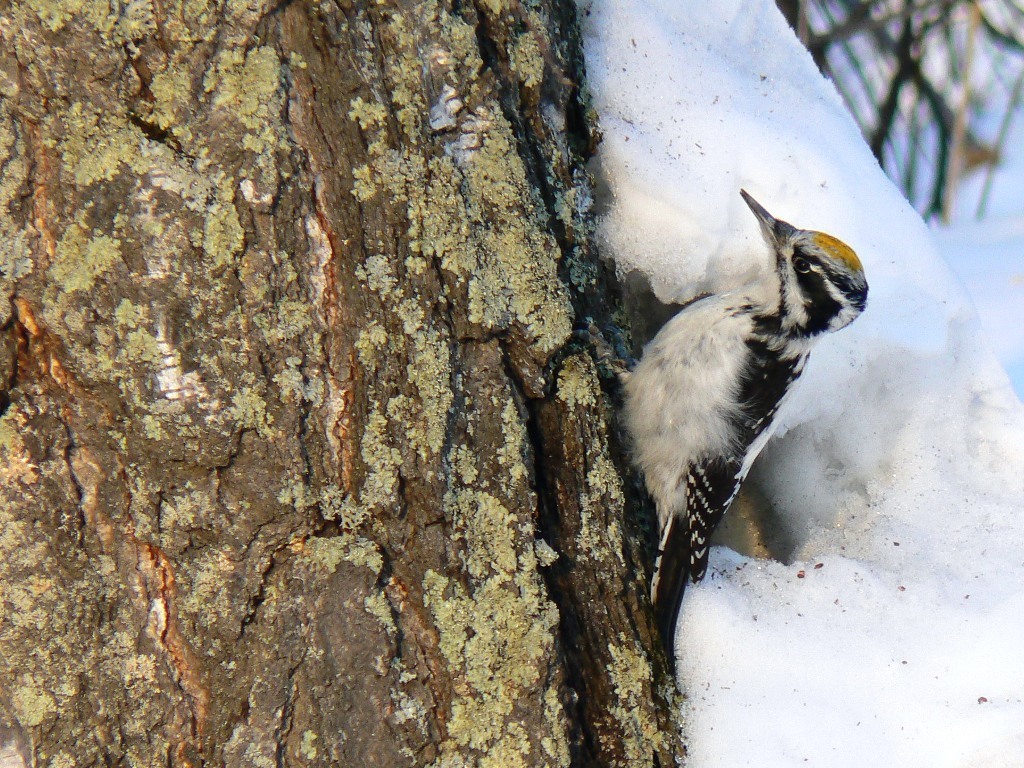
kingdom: Animalia
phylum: Chordata
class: Aves
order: Piciformes
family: Picidae
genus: Picoides
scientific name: Picoides tridactylus
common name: Eurasian three-toed woodpecker
